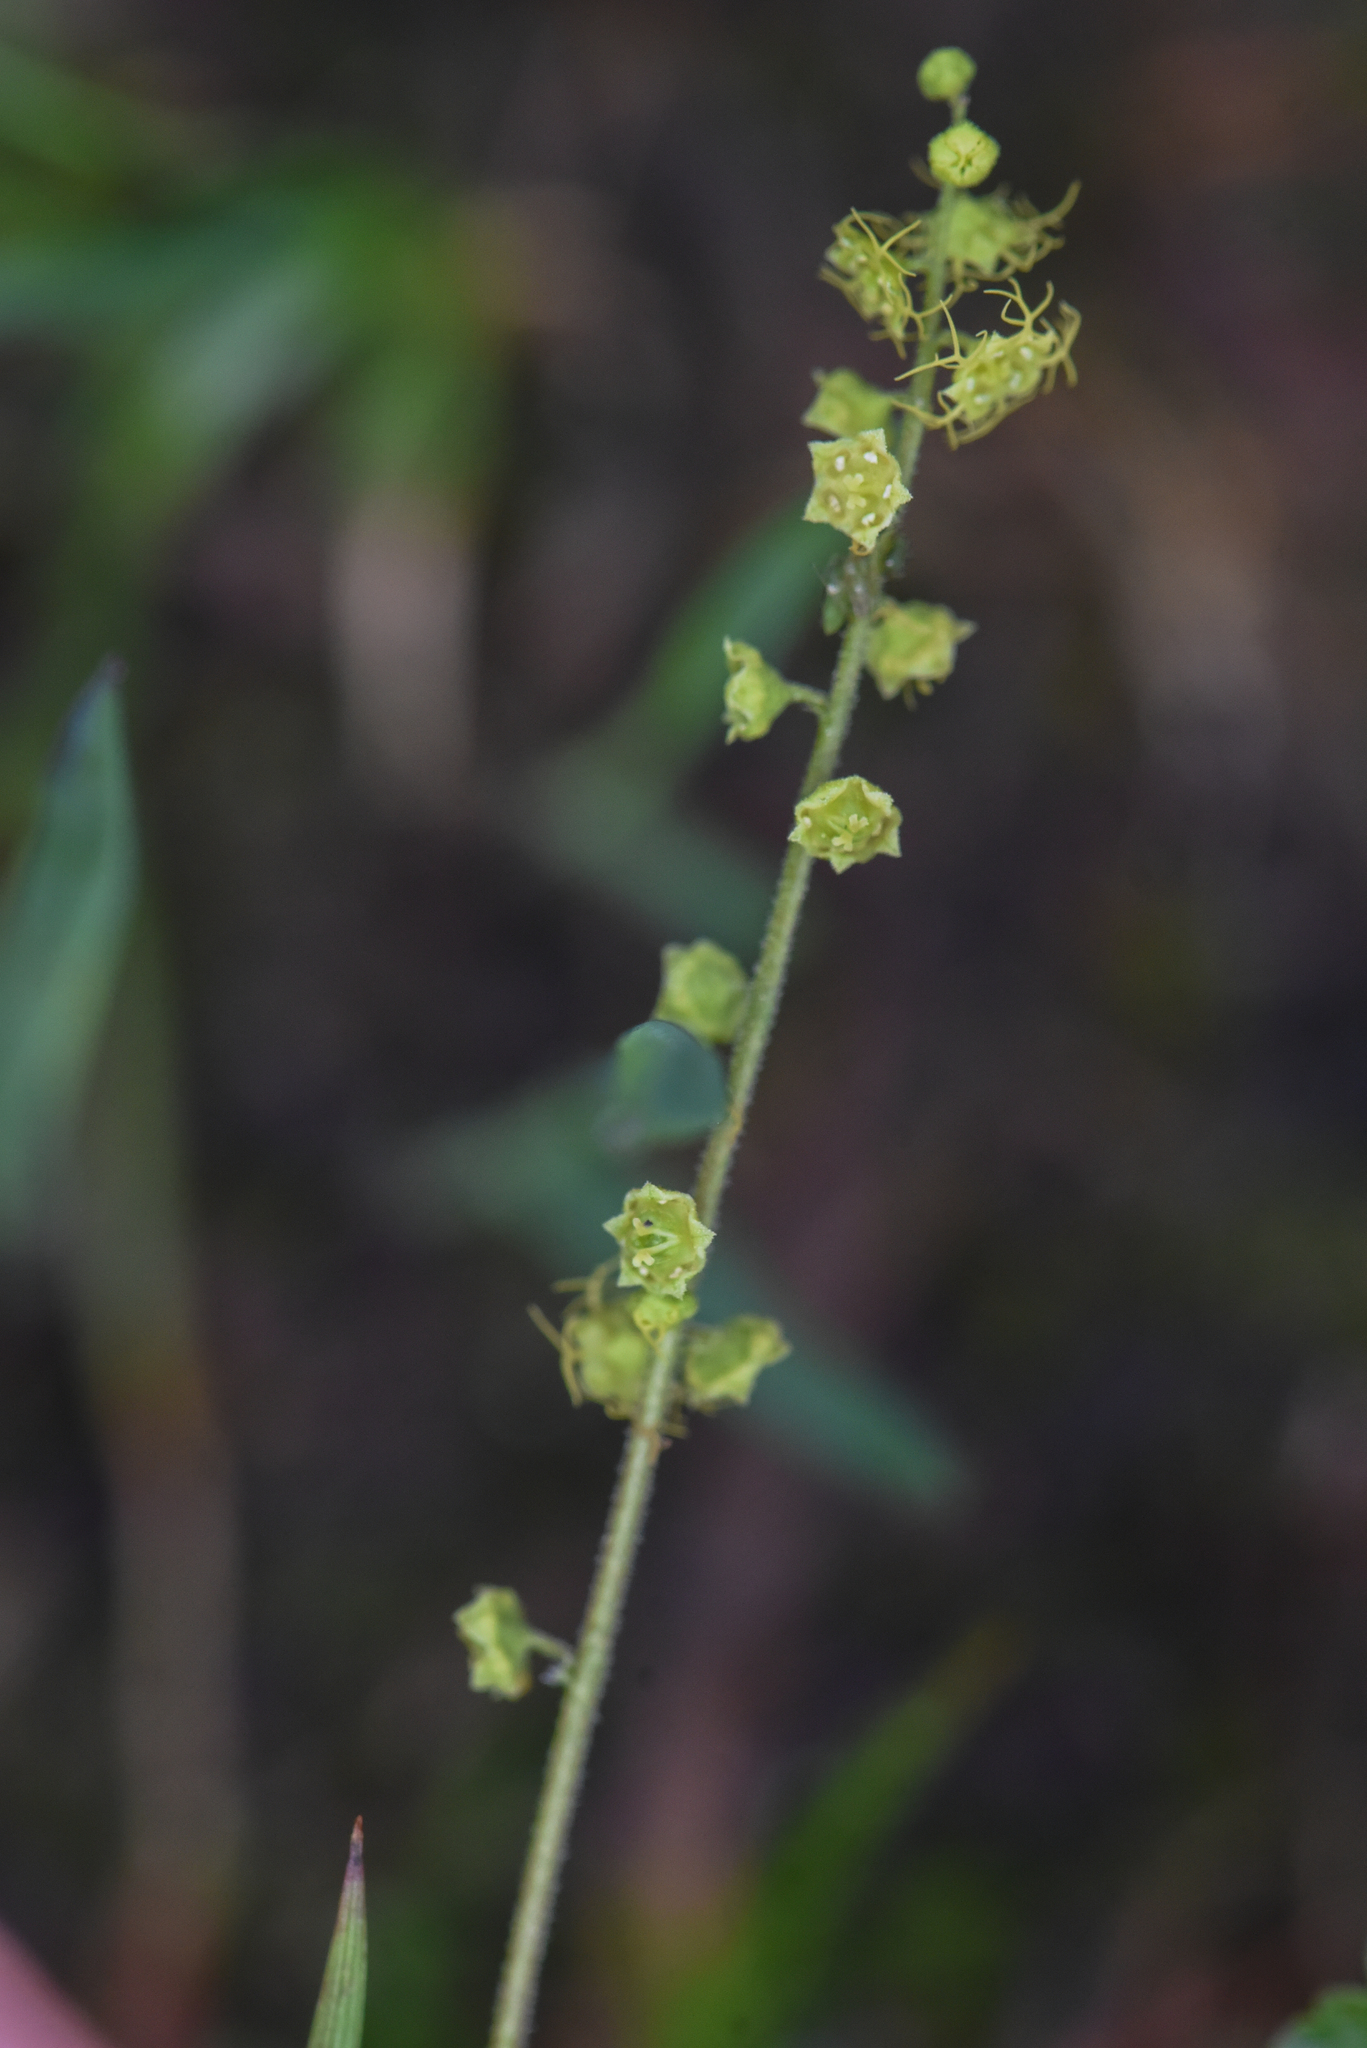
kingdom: Plantae
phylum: Tracheophyta
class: Magnoliopsida
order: Saxifragales
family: Saxifragaceae
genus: Brewerimitella
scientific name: Brewerimitella breweri
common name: Brewer's bishop's-cap
